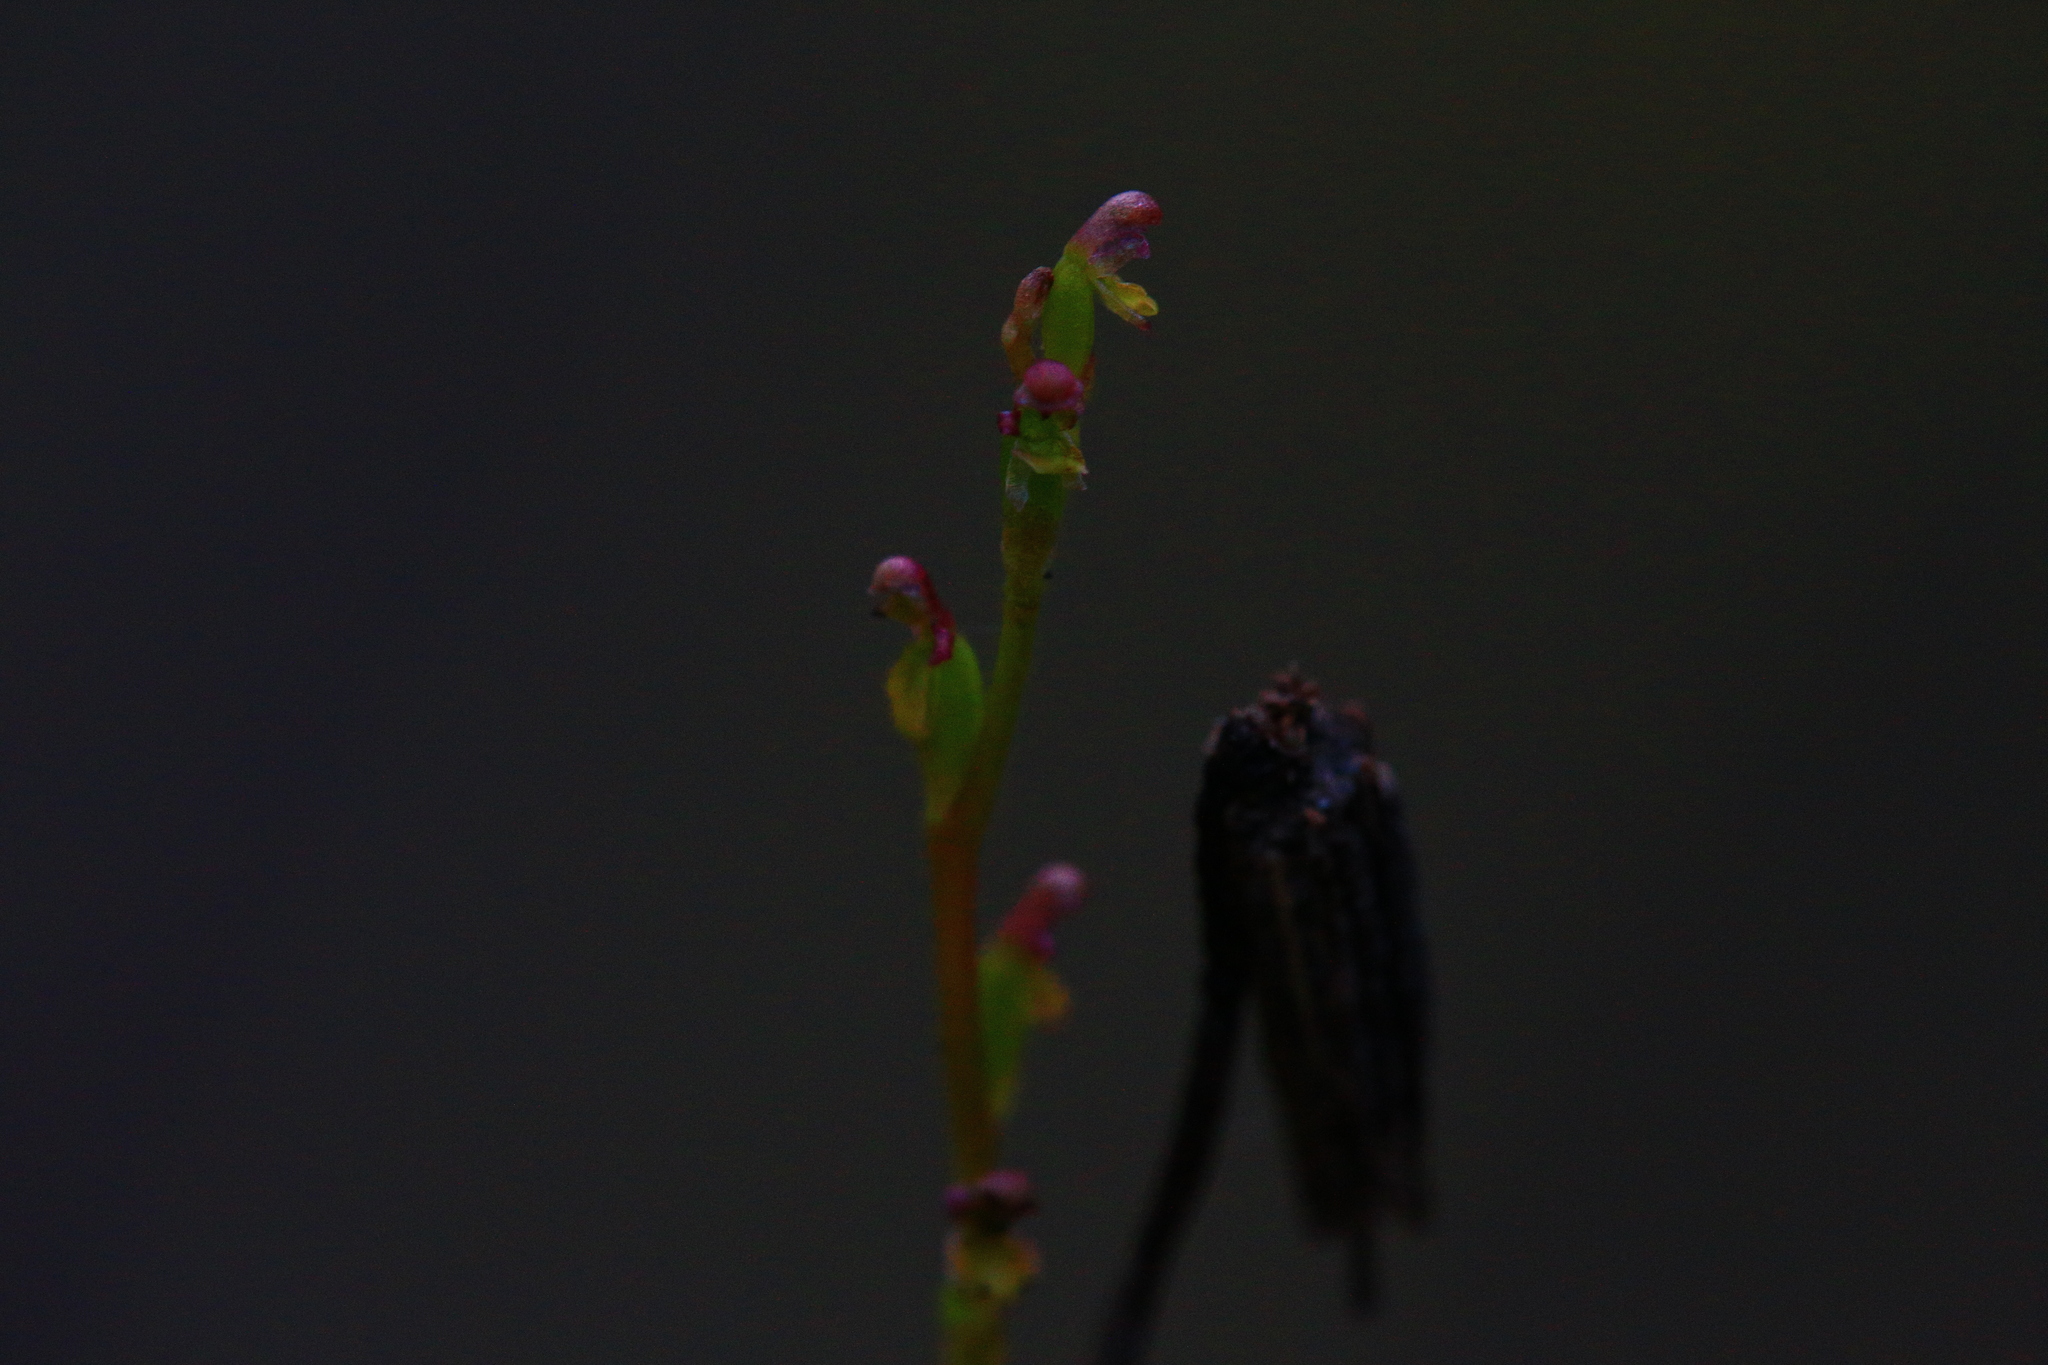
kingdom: Plantae
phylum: Tracheophyta
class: Liliopsida
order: Asparagales
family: Orchidaceae
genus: Microtis
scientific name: Microtis orbicularis
